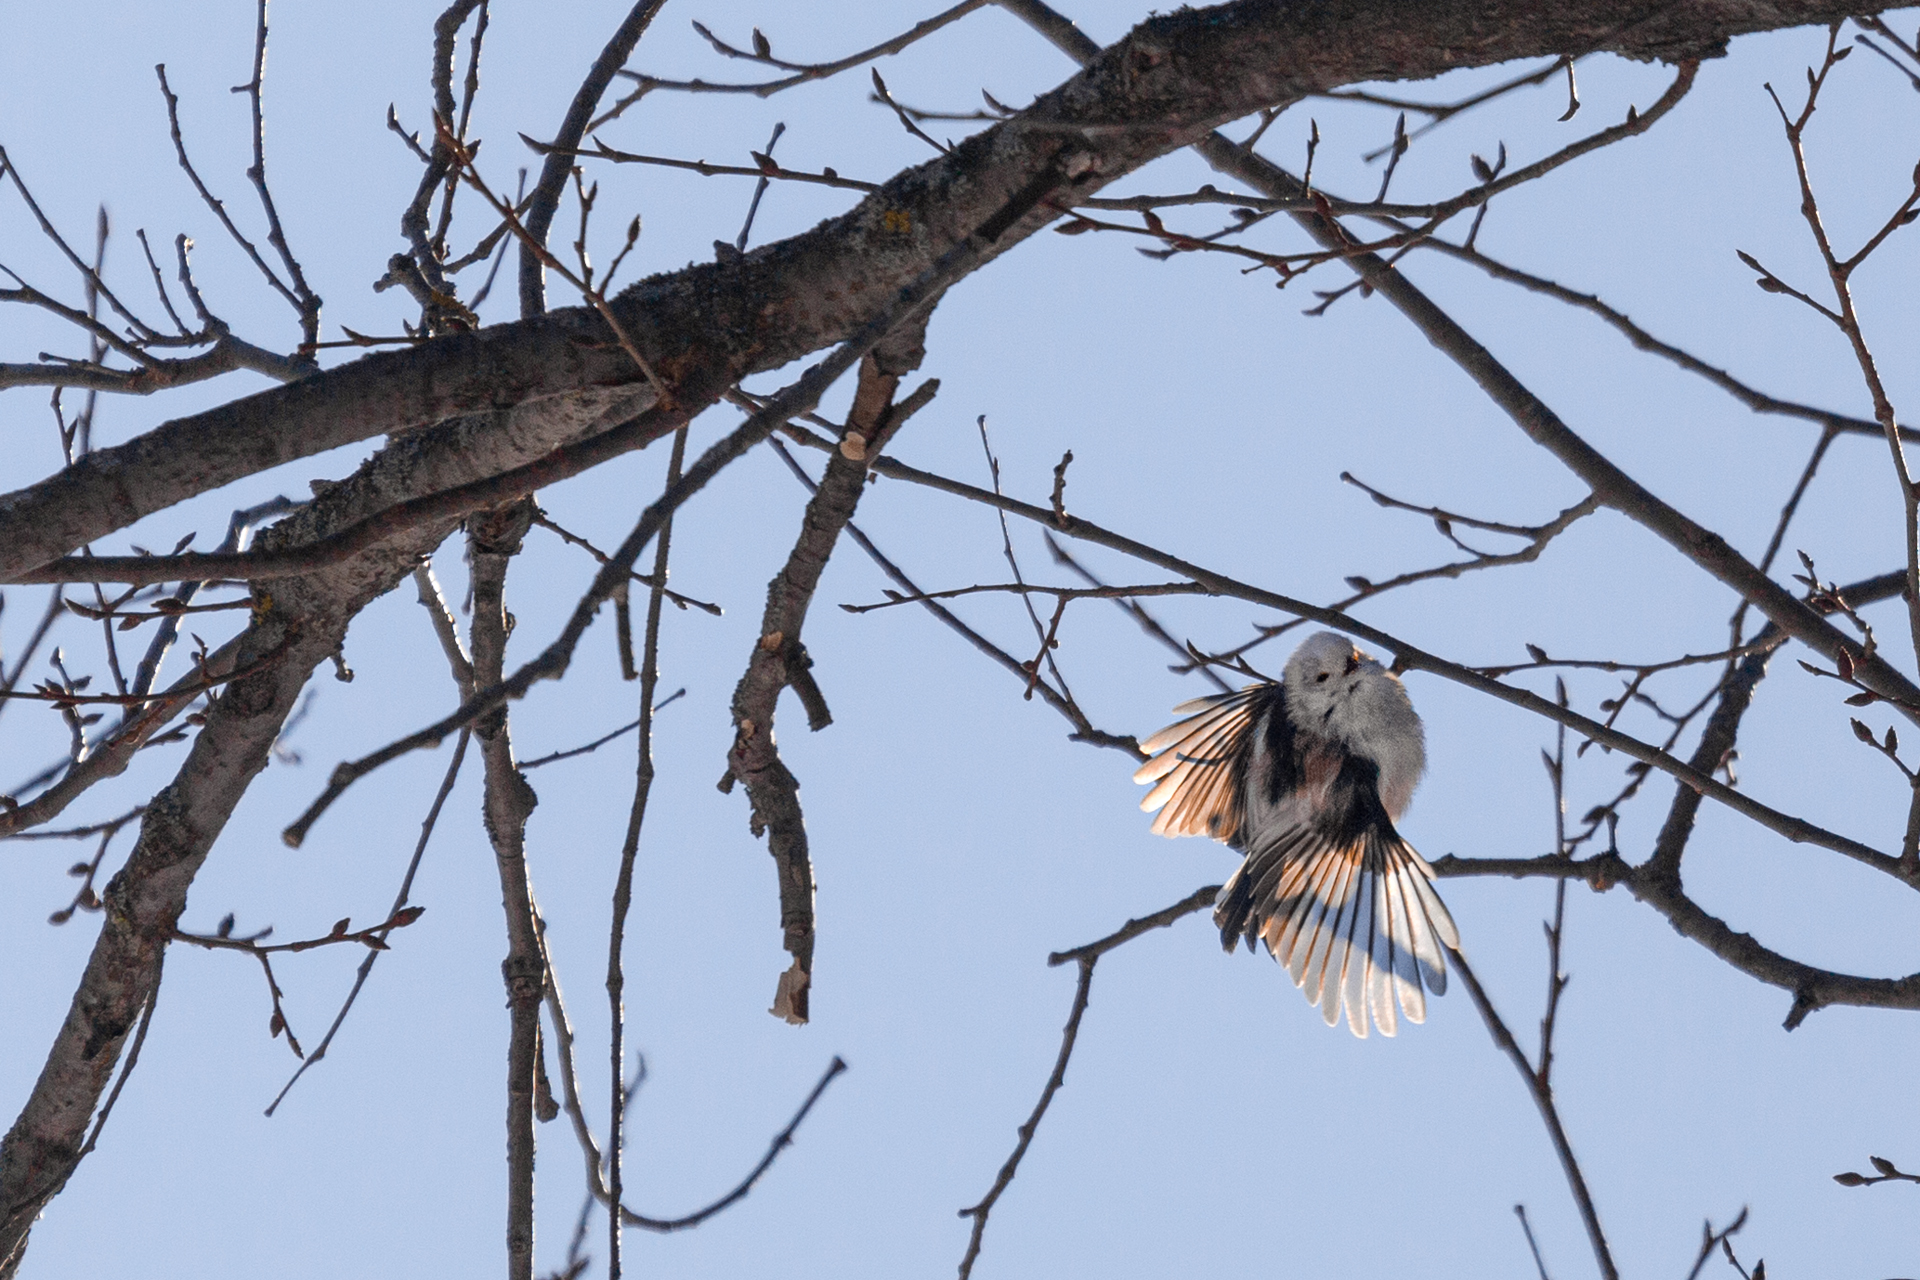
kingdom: Animalia
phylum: Chordata
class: Aves
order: Passeriformes
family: Aegithalidae
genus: Aegithalos
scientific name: Aegithalos caudatus
